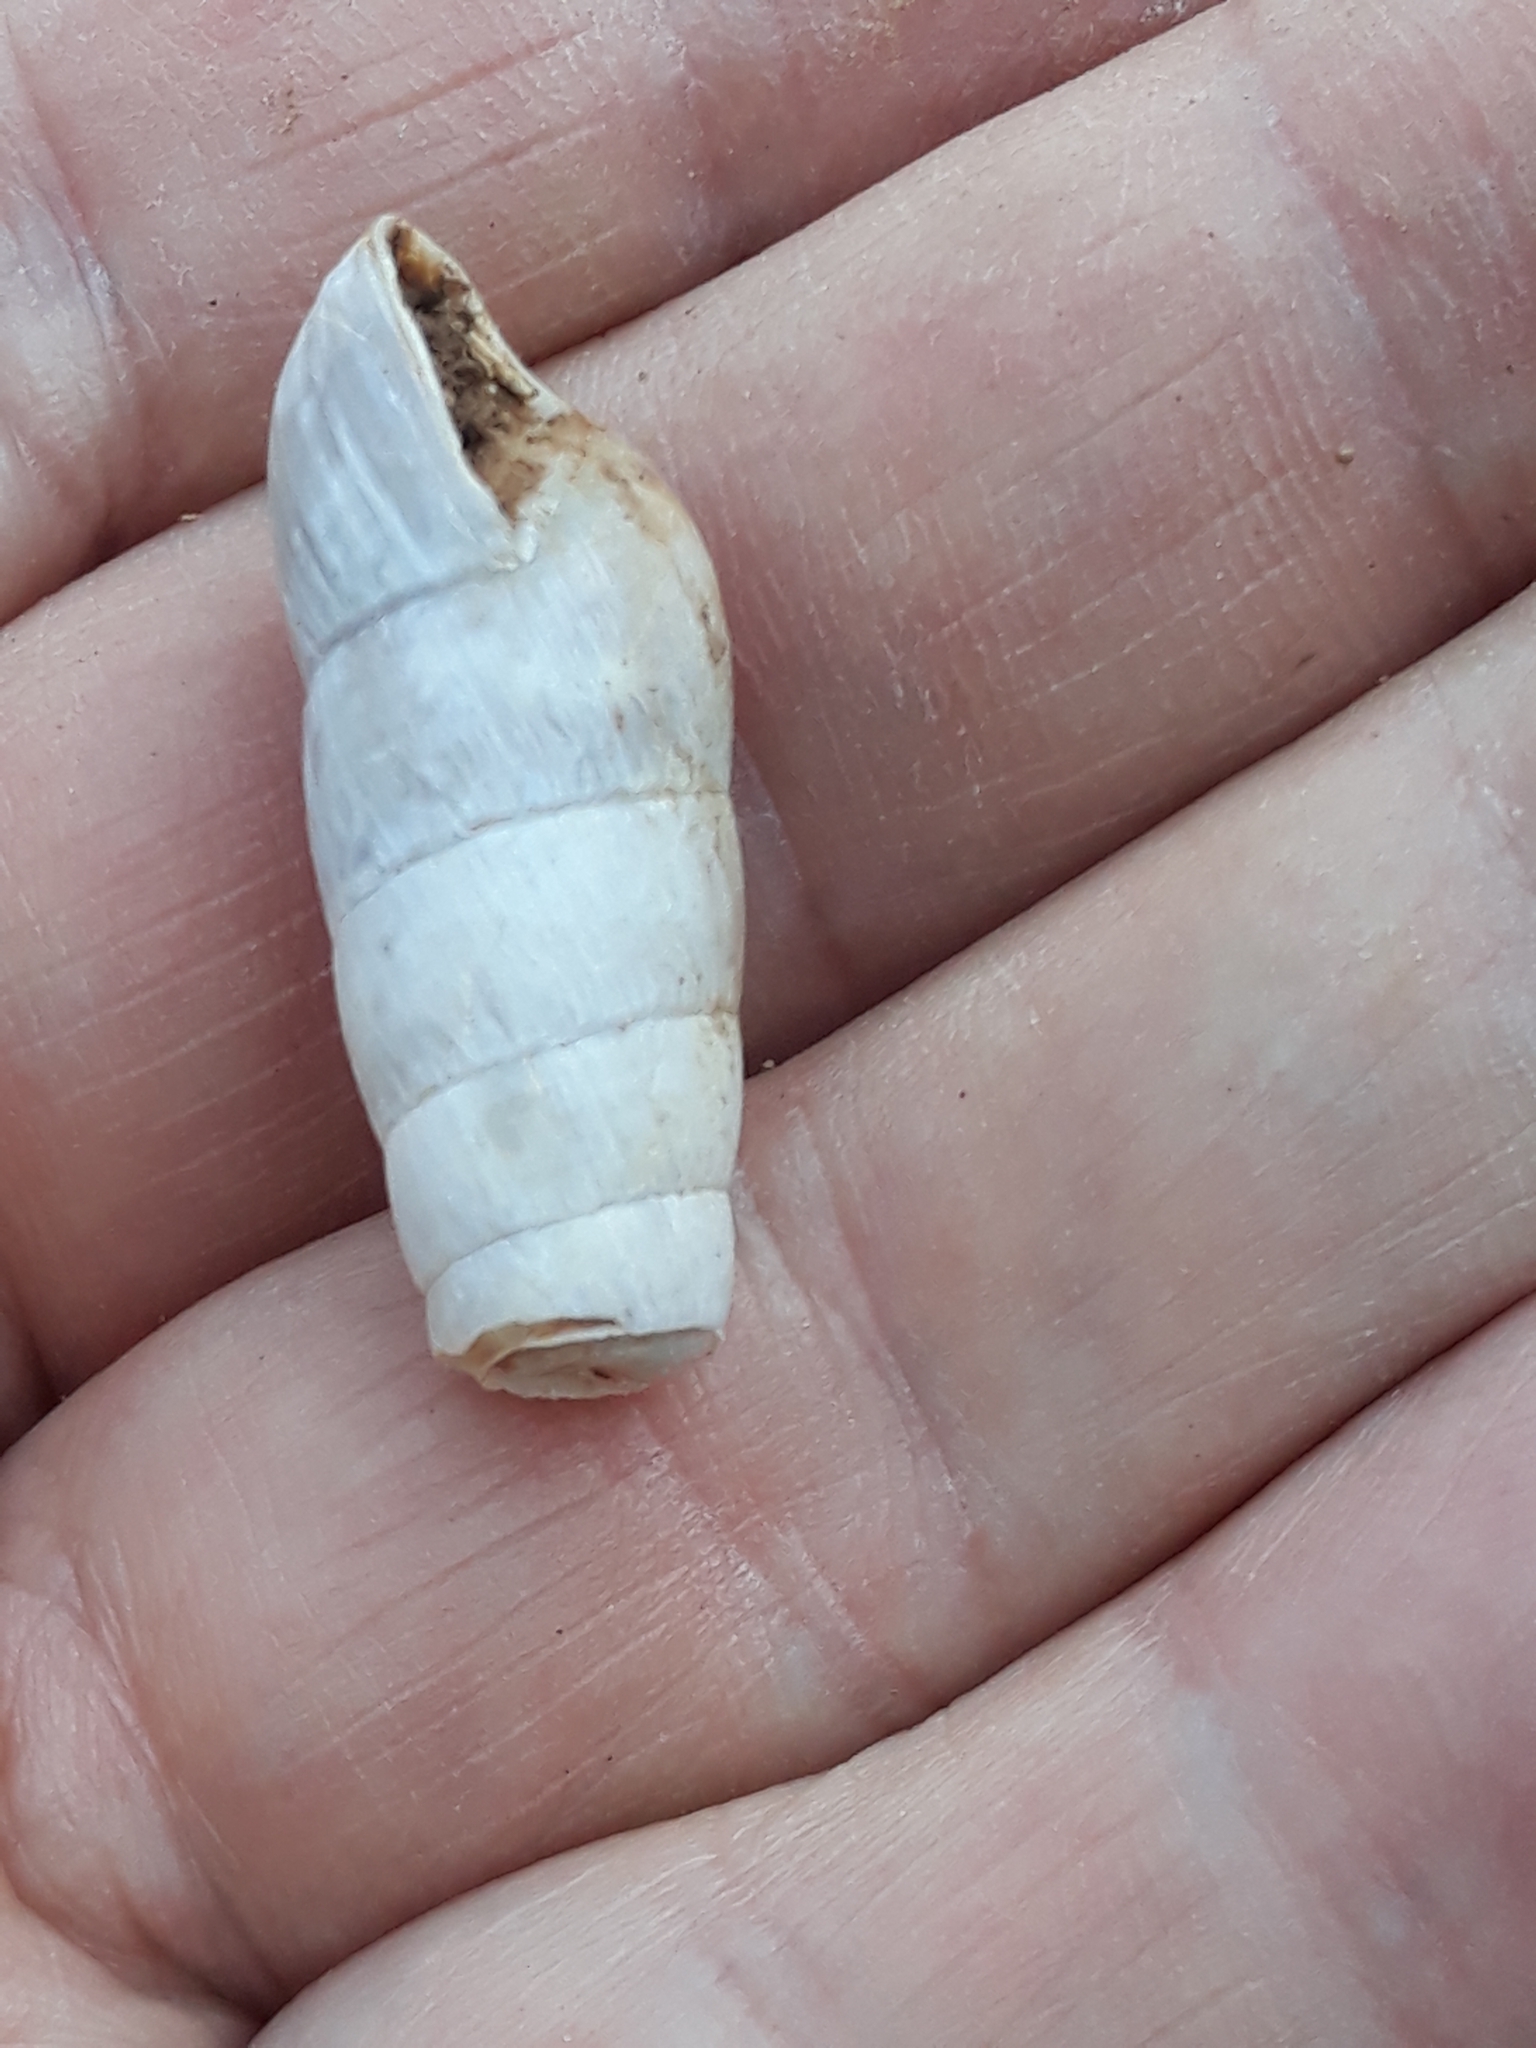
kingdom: Animalia
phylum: Mollusca
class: Gastropoda
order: Stylommatophora
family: Achatinidae
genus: Rumina
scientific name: Rumina decollata
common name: Decollate snail
